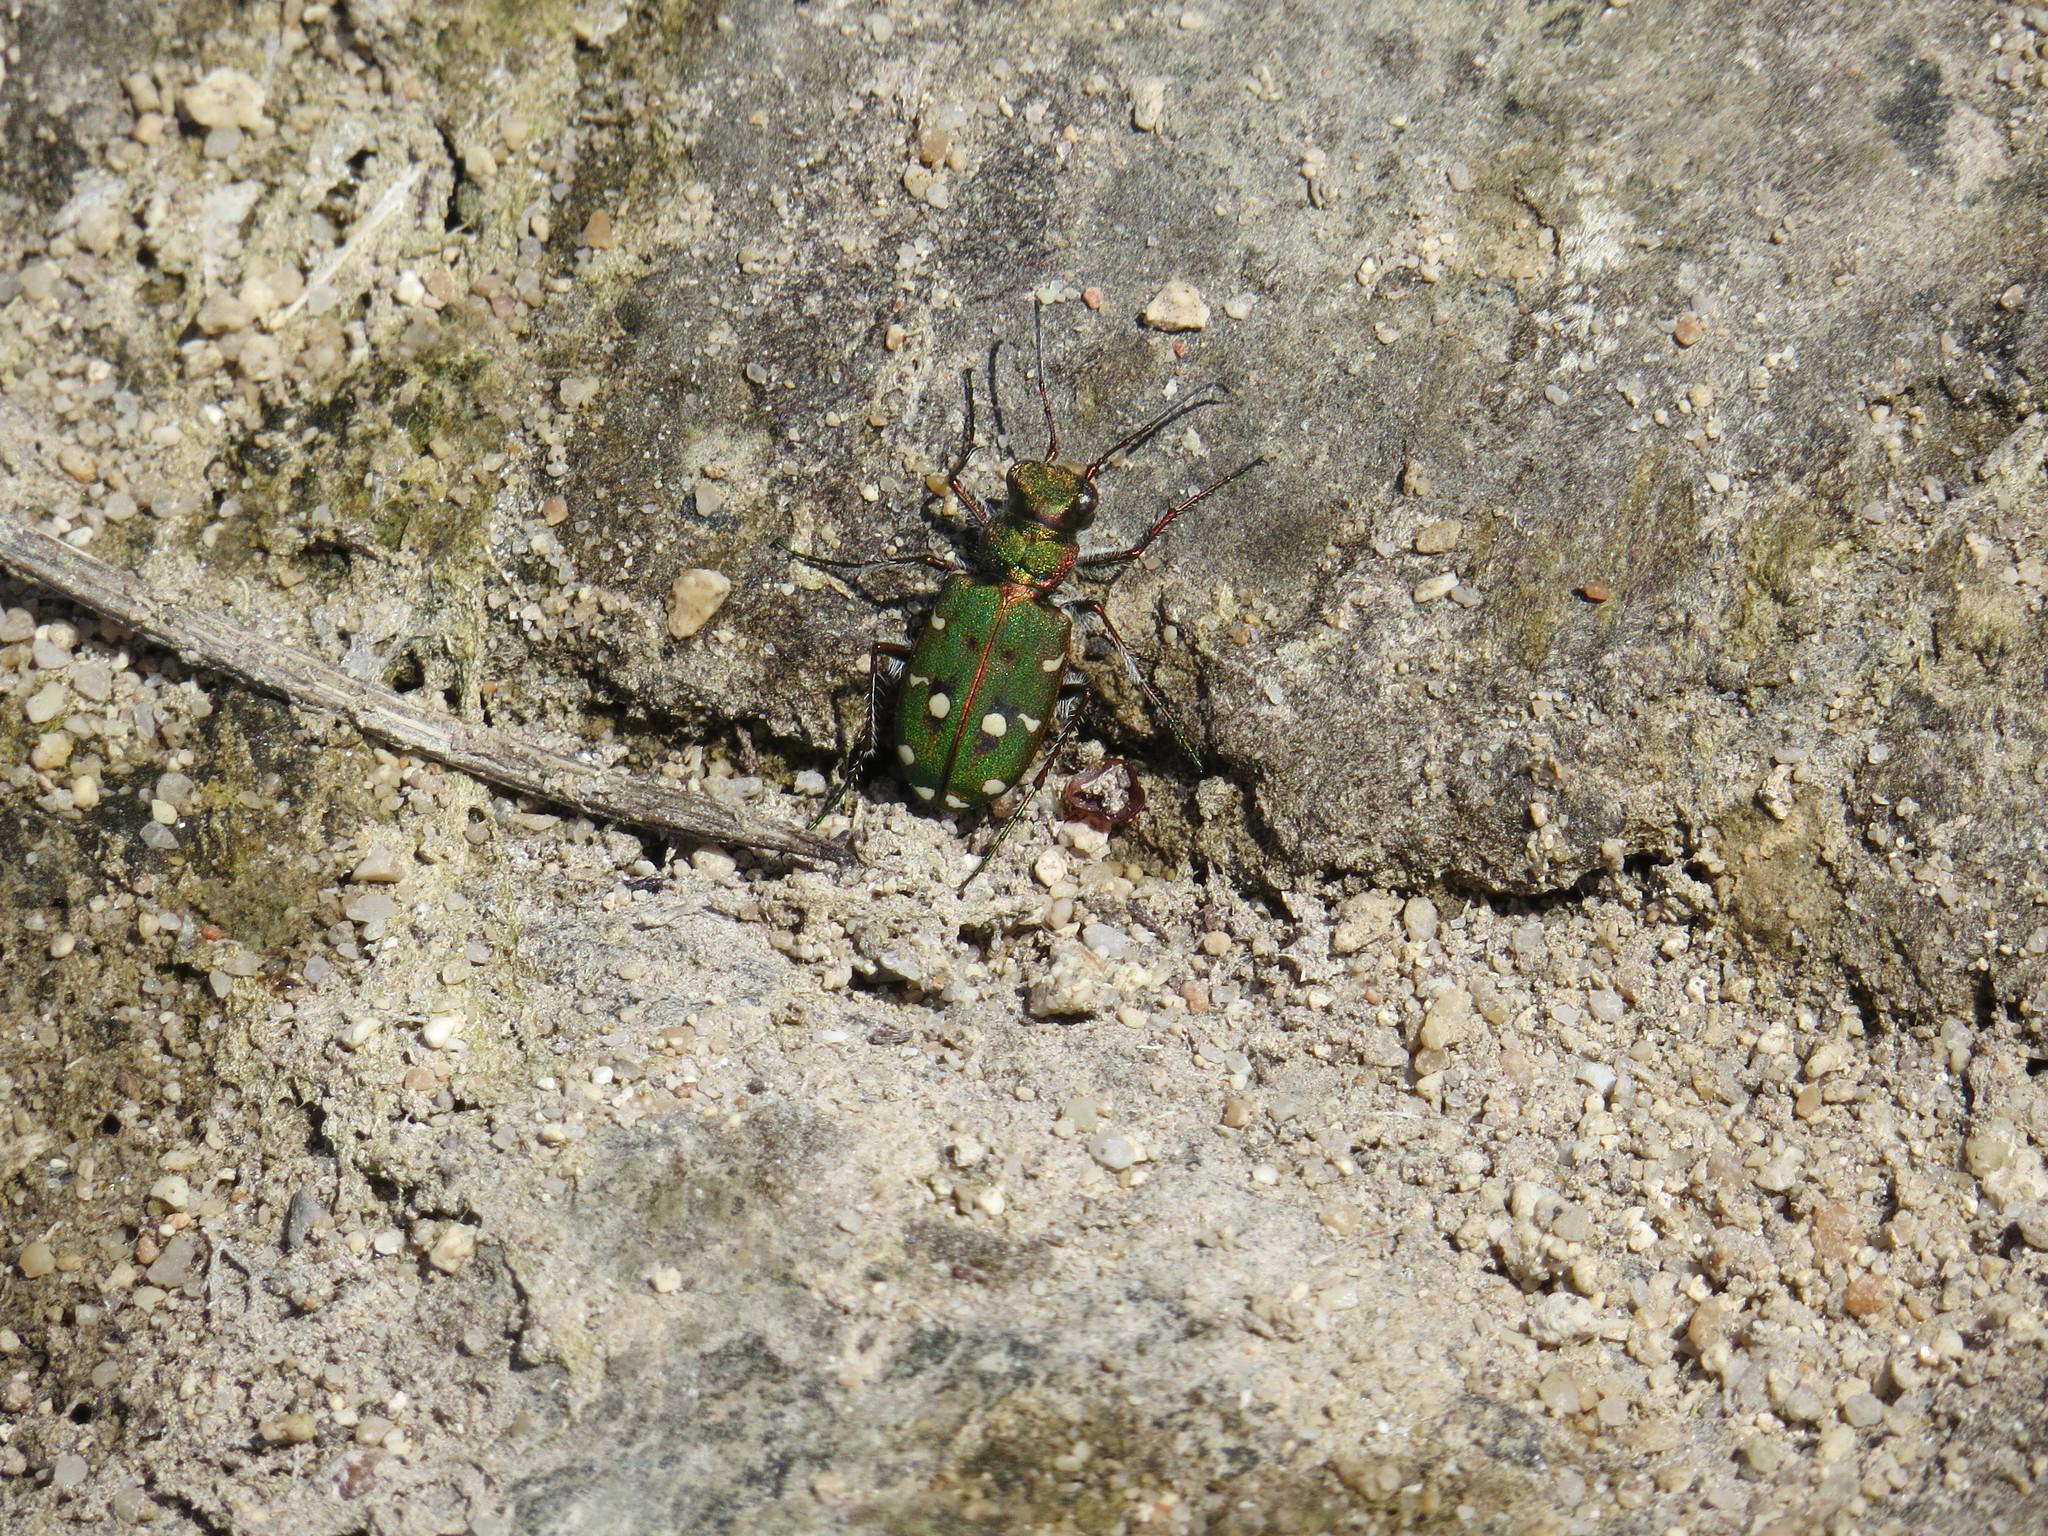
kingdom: Animalia
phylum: Arthropoda
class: Insecta
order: Coleoptera
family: Carabidae
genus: Cicindela
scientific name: Cicindela campestris
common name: Common tiger beetle
